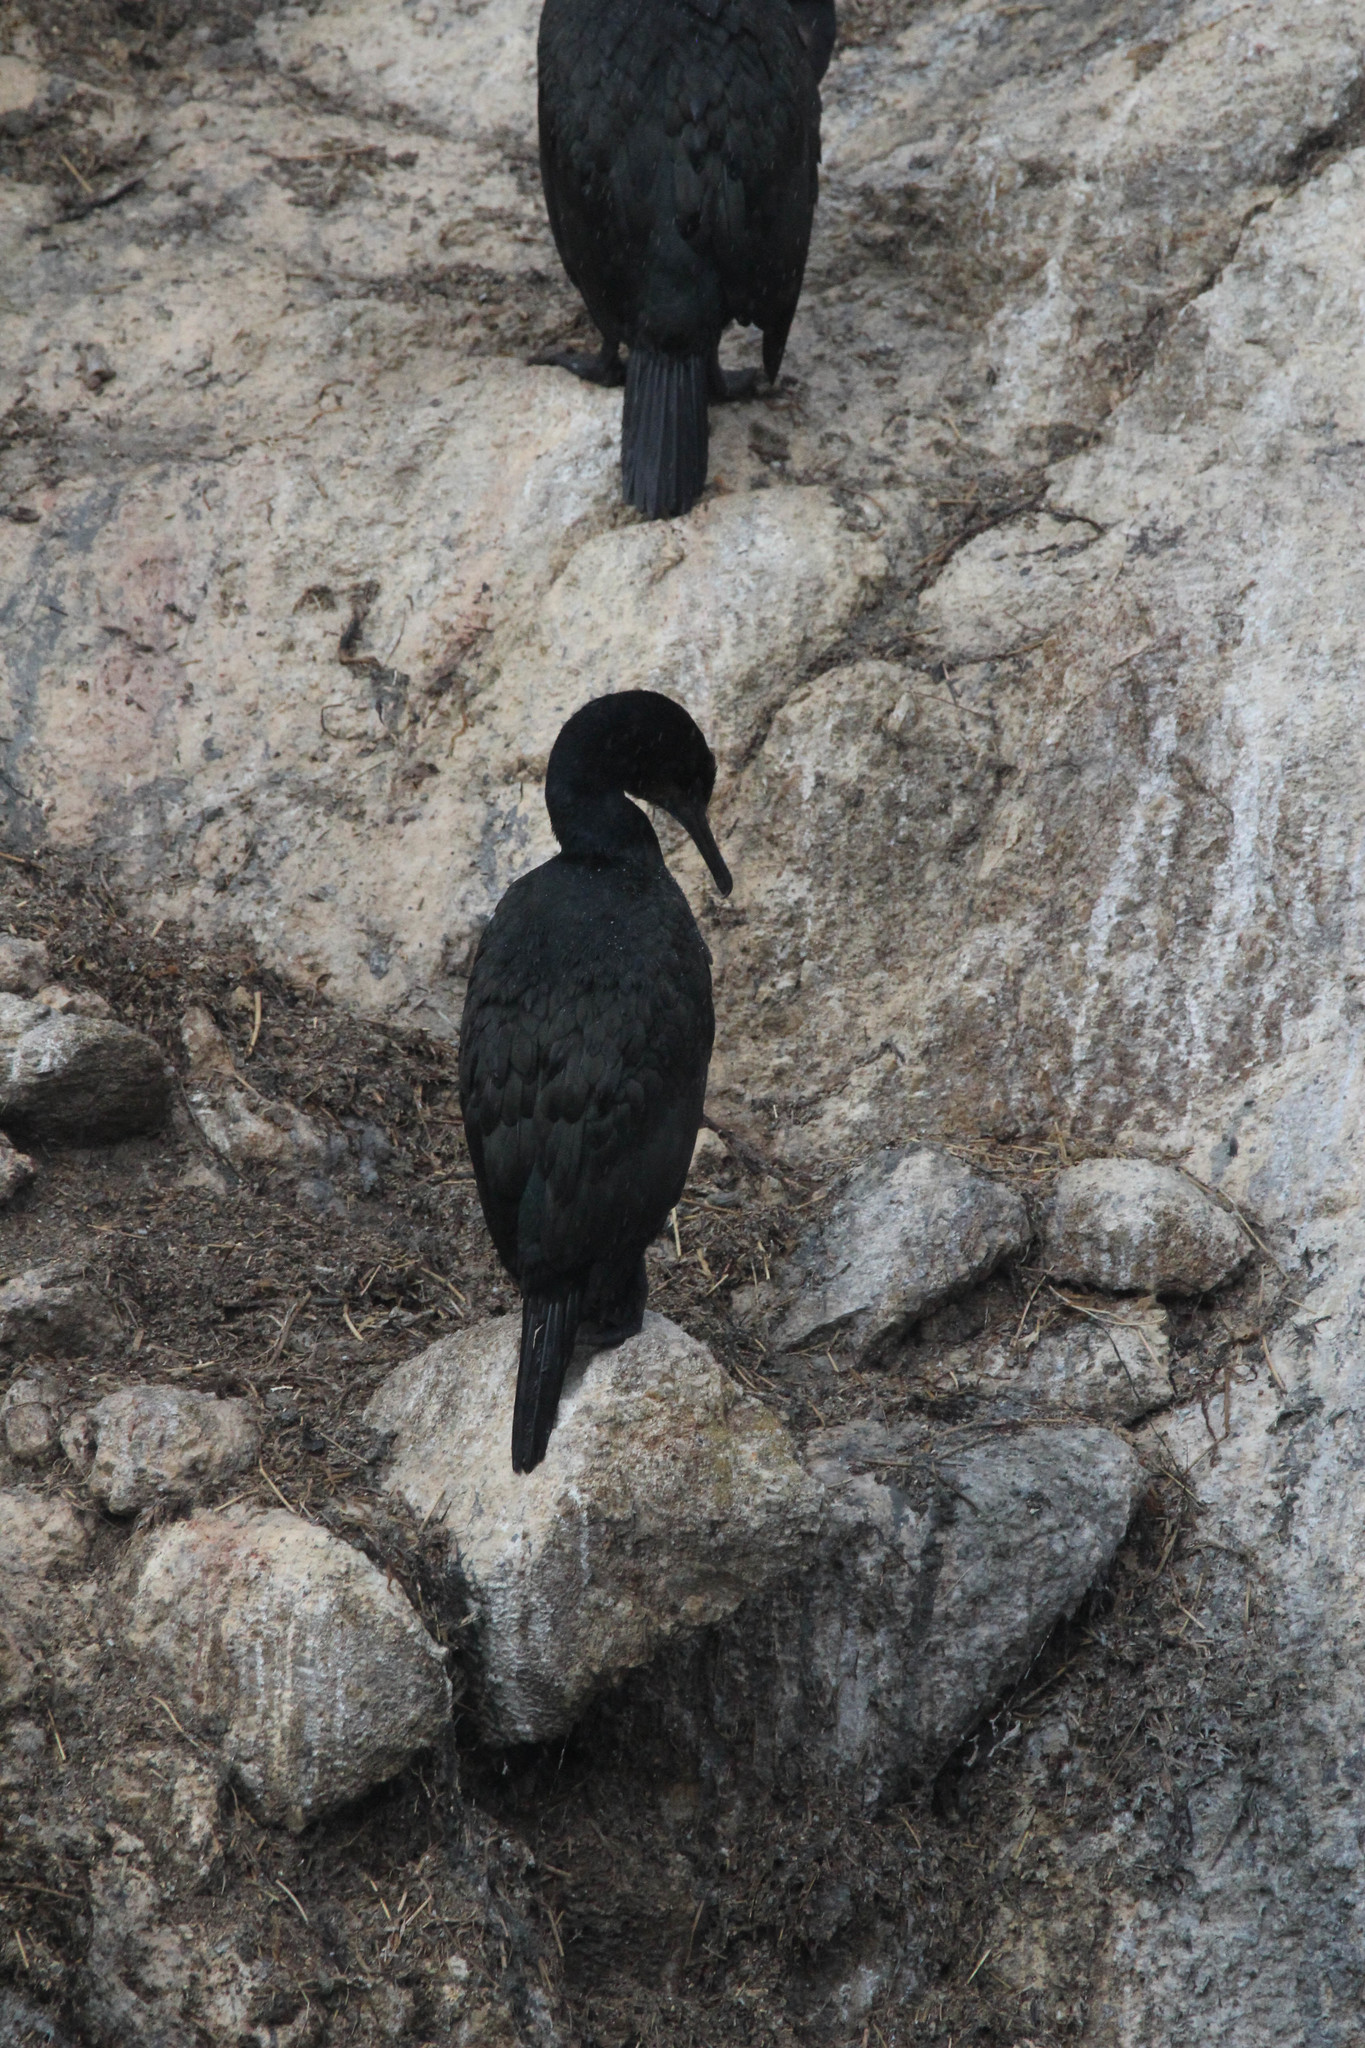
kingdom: Animalia
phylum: Chordata
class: Aves
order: Suliformes
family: Phalacrocoracidae
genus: Urile
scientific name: Urile penicillatus
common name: Brandt's cormorant
